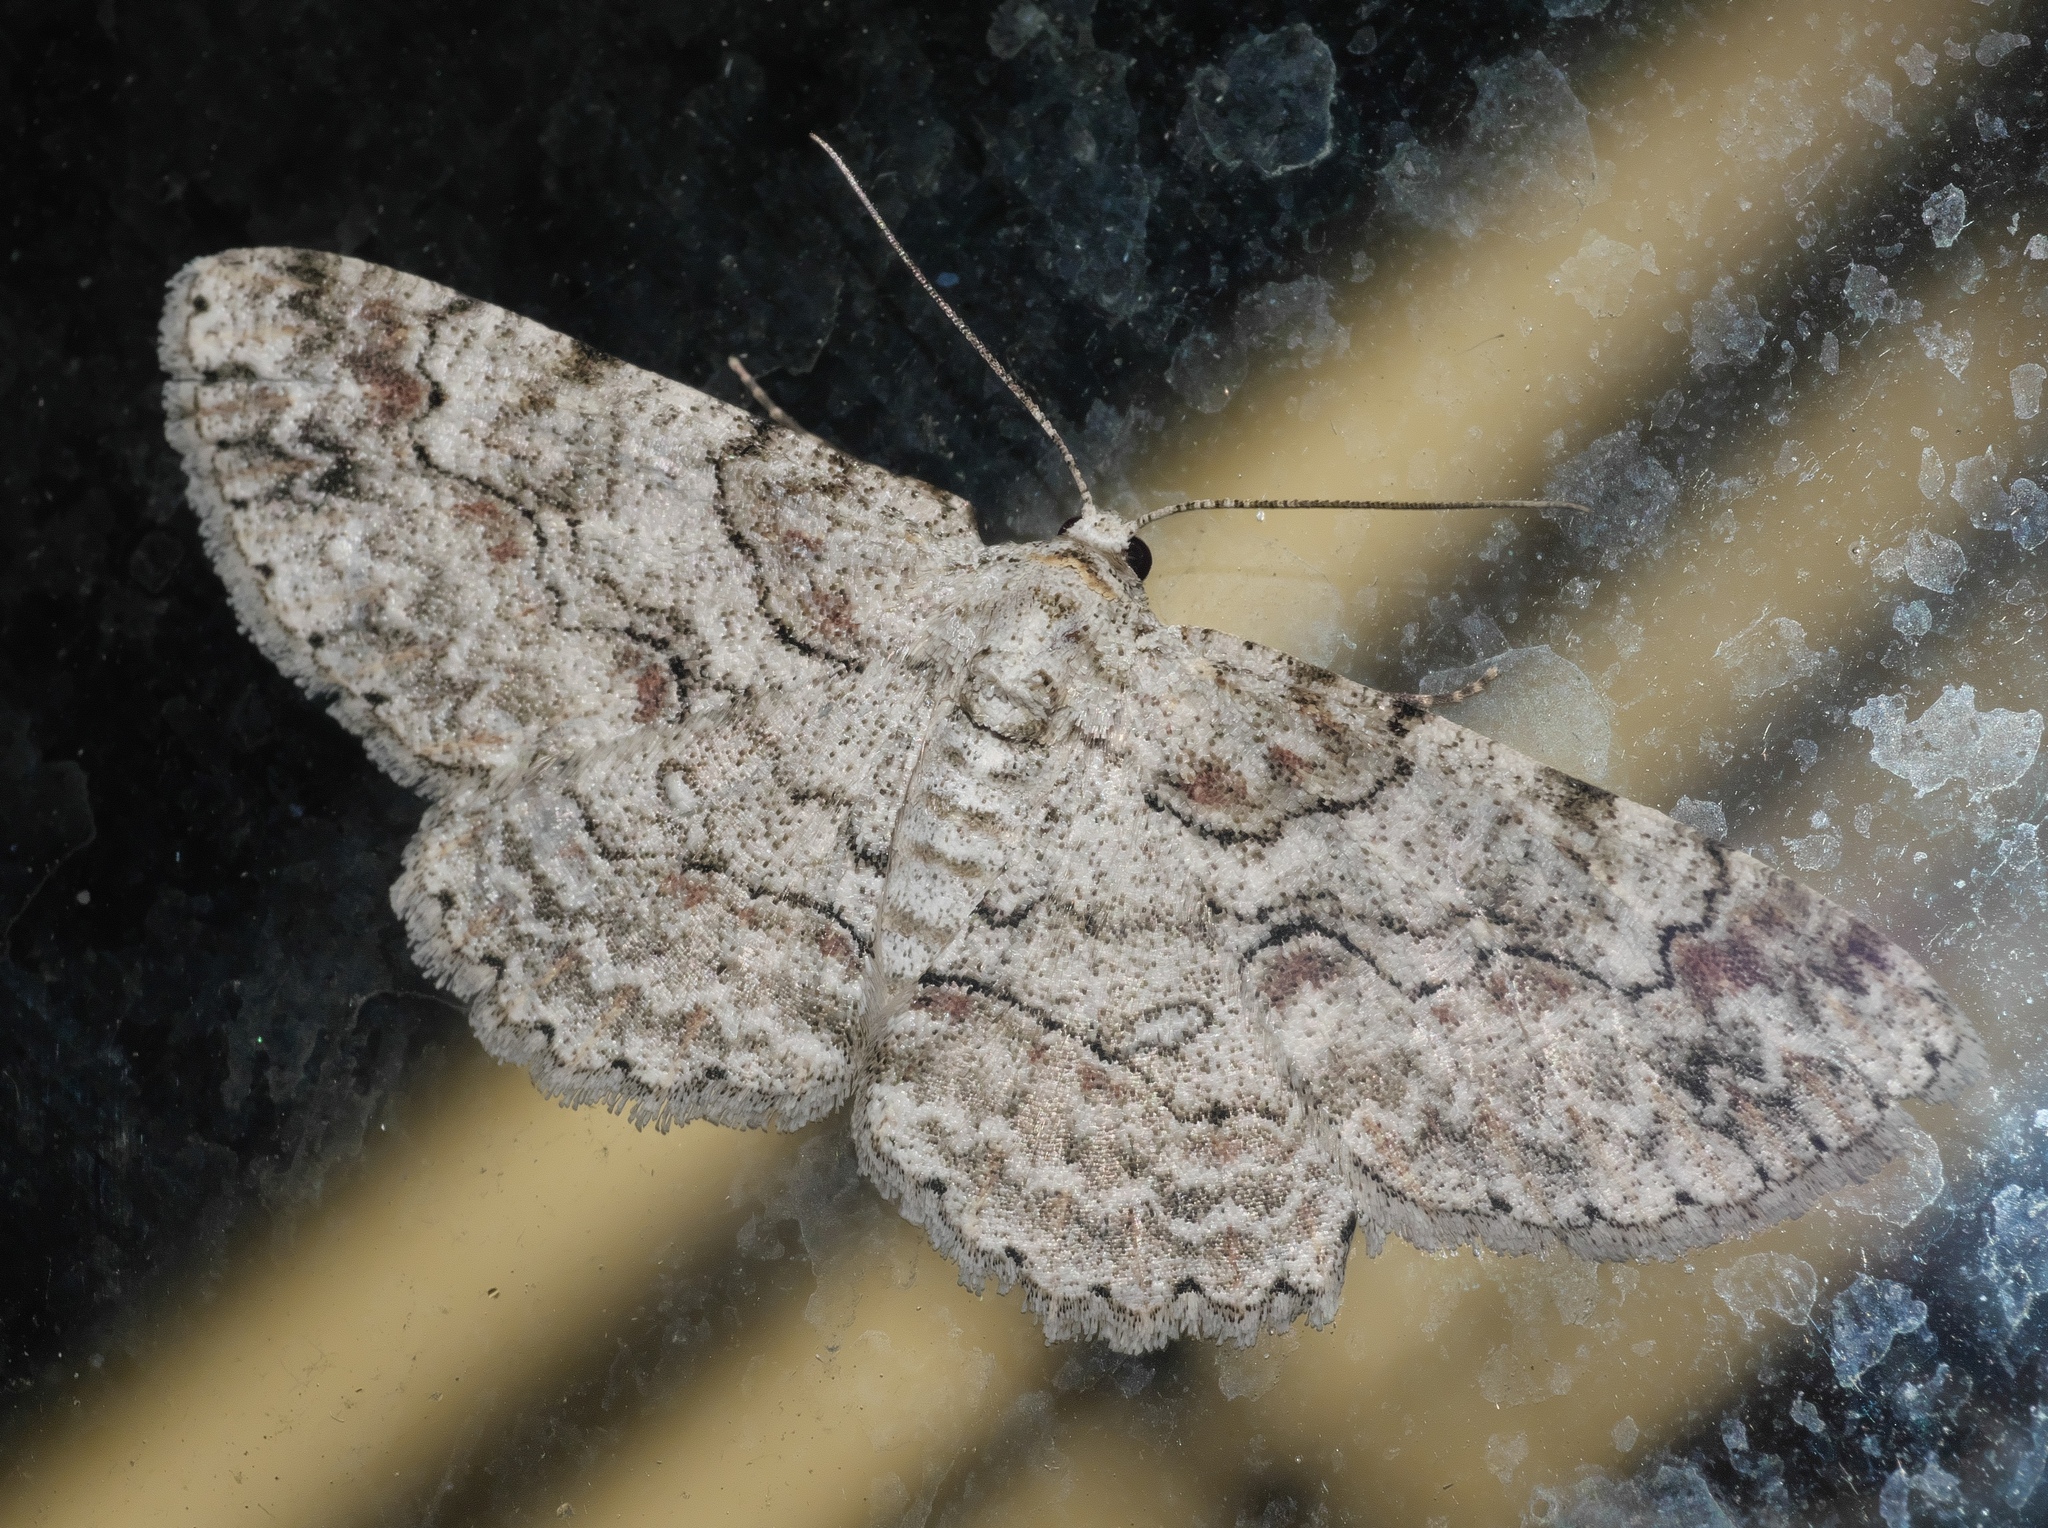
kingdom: Animalia
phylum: Arthropoda
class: Insecta
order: Lepidoptera
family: Geometridae
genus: Iridopsis
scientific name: Iridopsis defectaria
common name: Brown-shaded gray
